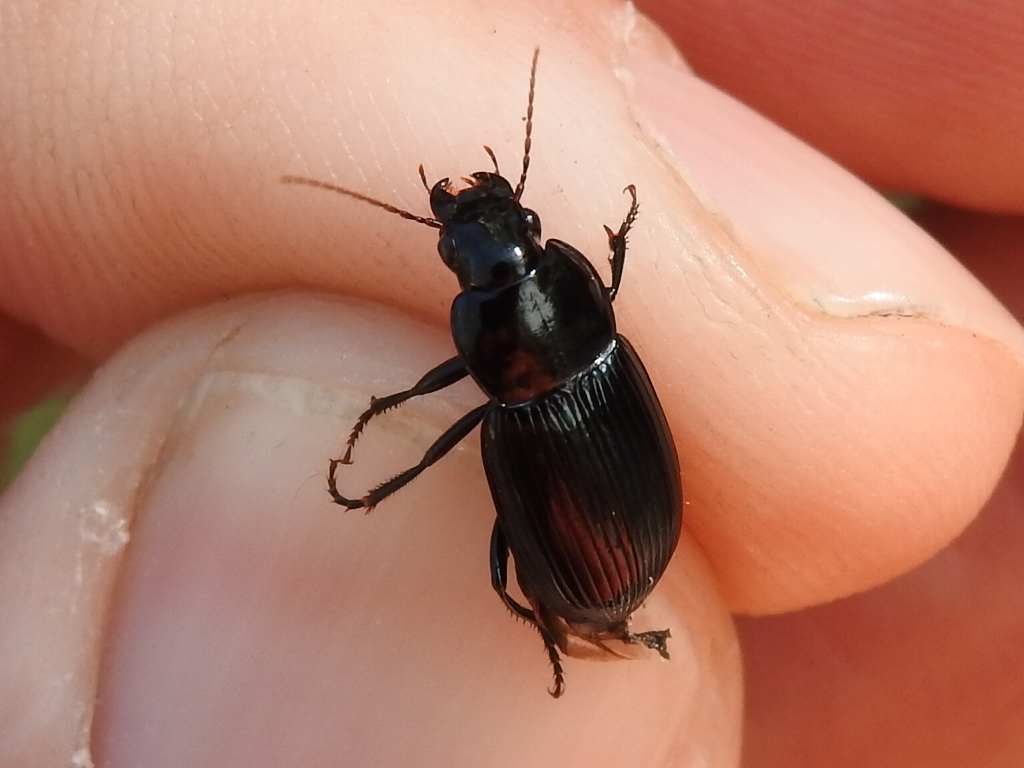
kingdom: Animalia
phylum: Arthropoda
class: Insecta
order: Coleoptera
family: Carabidae
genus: Aztecarpalus
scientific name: Aztecarpalus schaefferi
